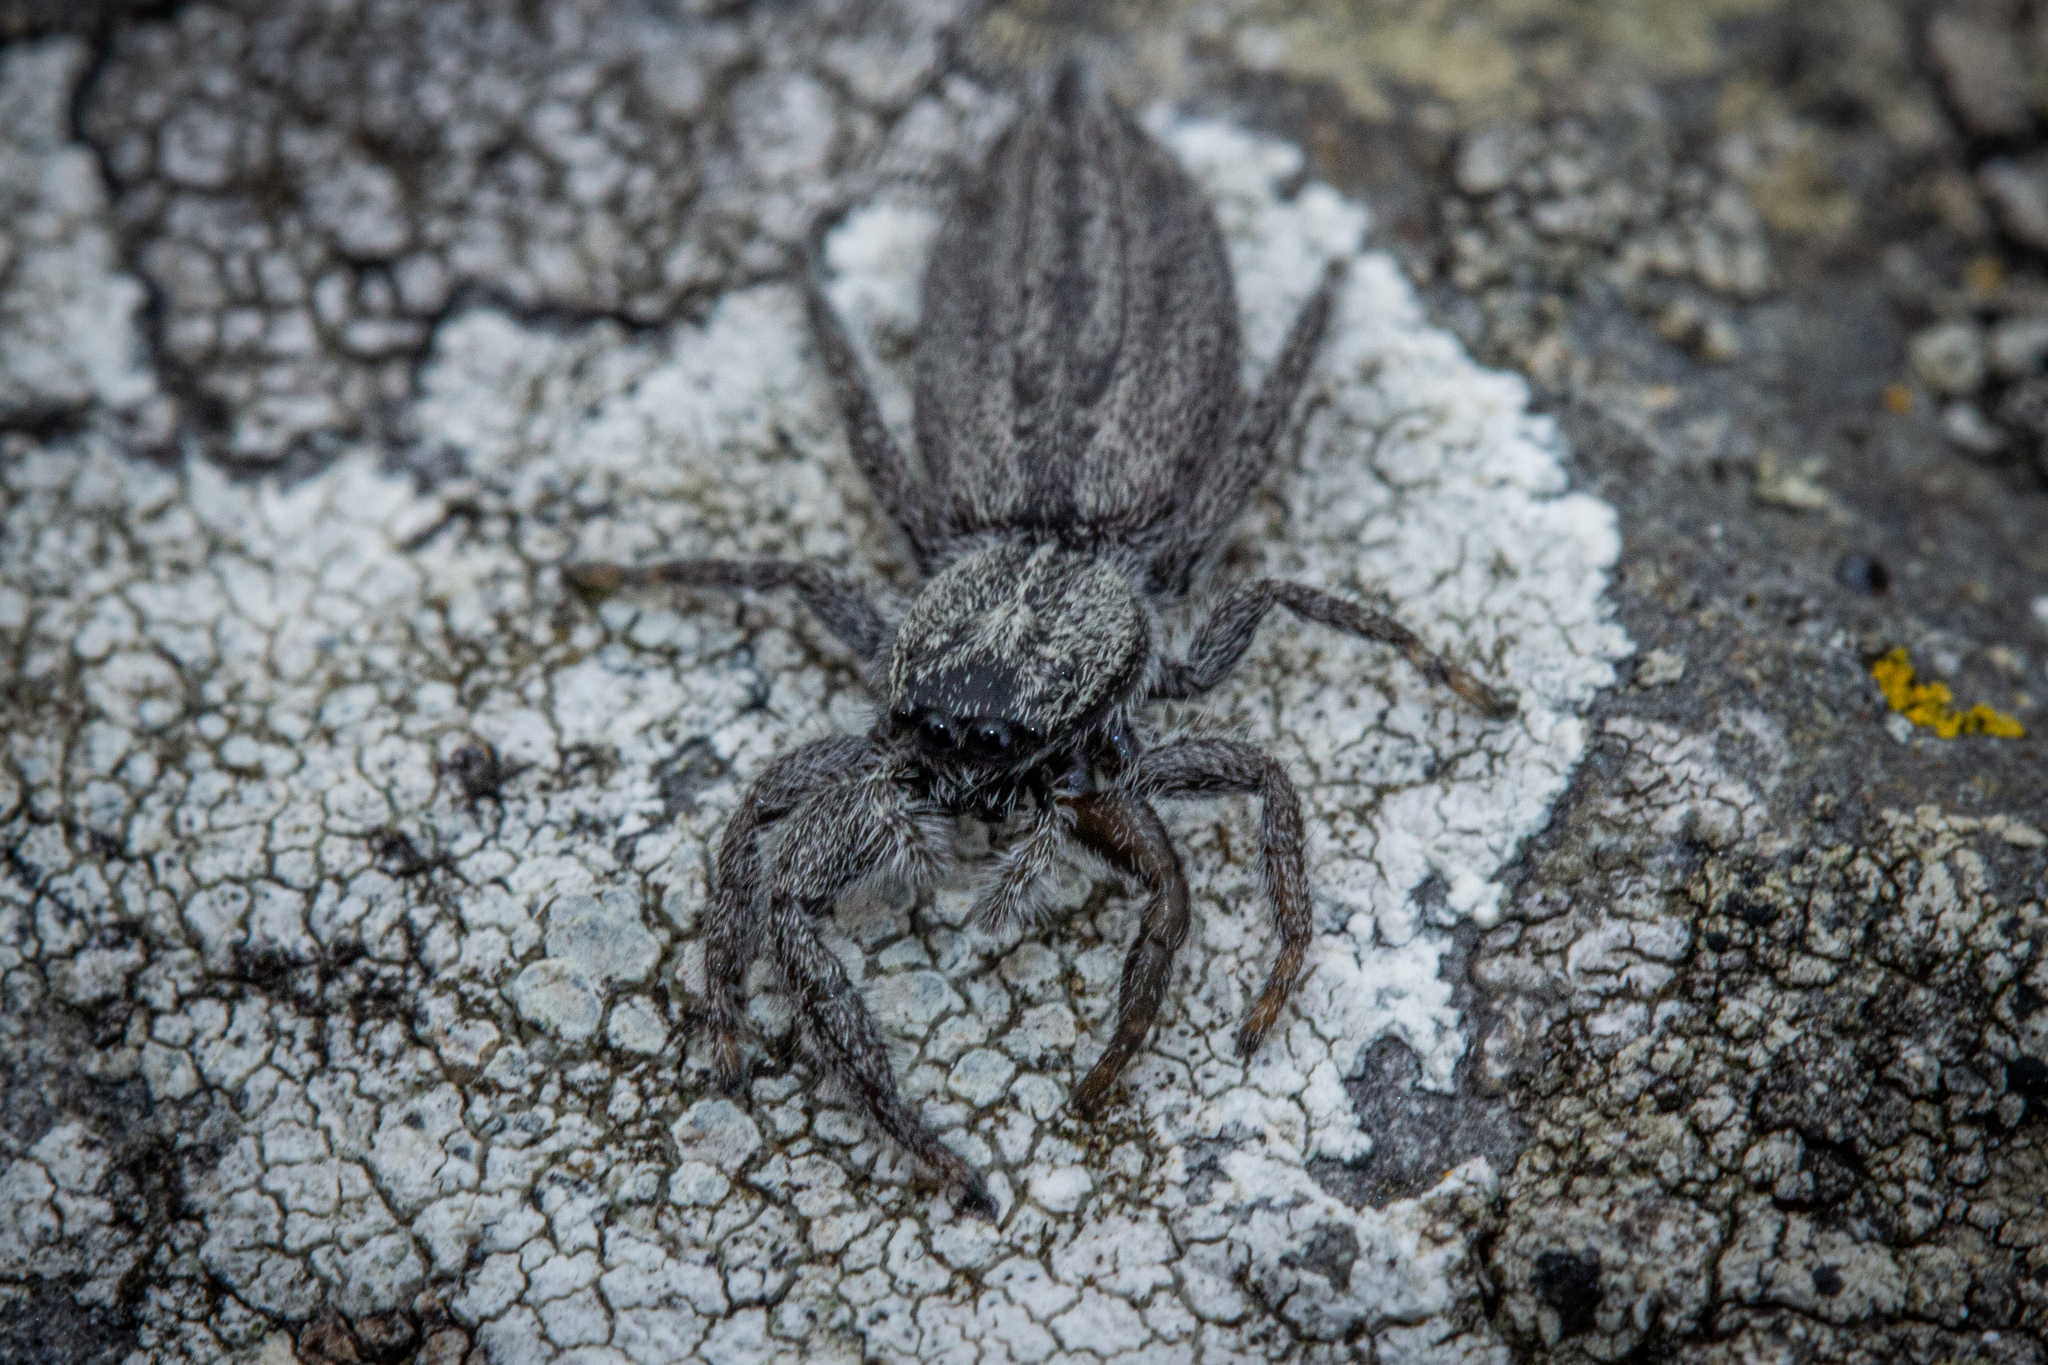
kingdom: Animalia
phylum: Arthropoda
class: Arachnida
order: Araneae
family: Salticidae
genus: Holoplatys
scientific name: Holoplatys apressus
